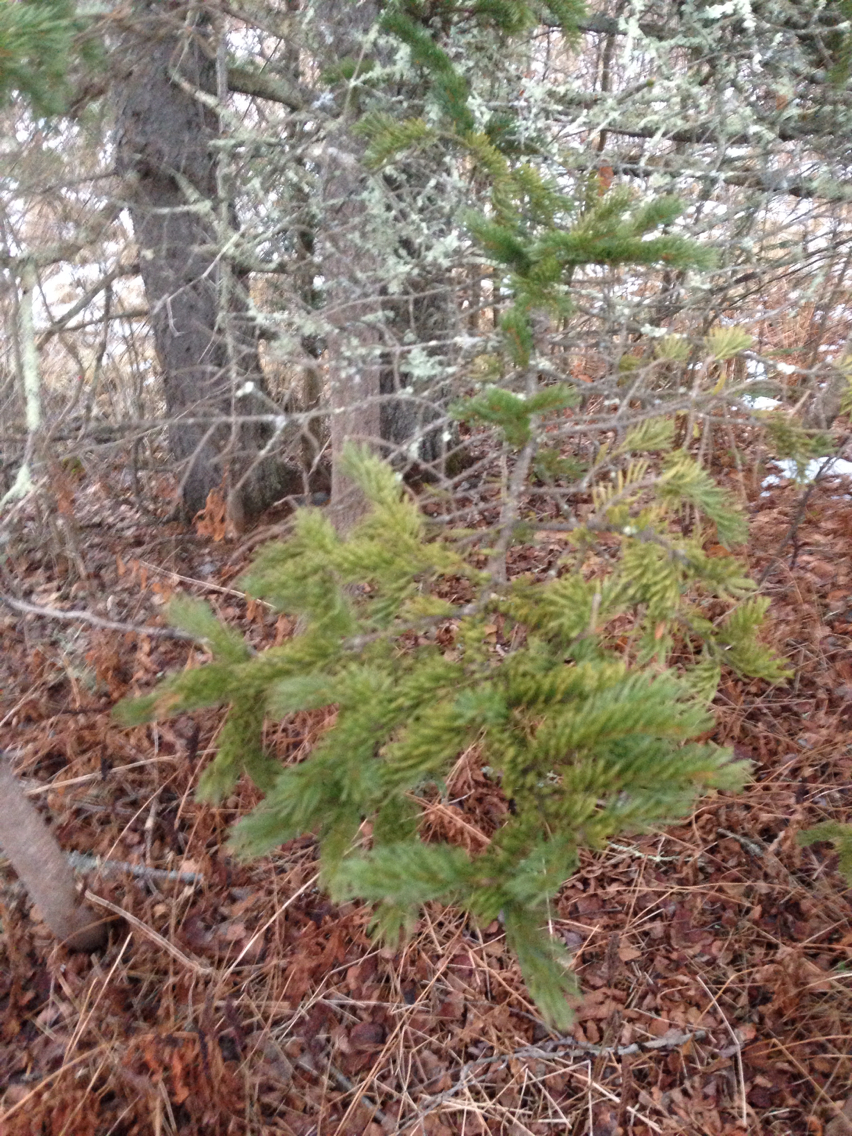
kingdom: Plantae
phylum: Tracheophyta
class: Pinopsida
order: Pinales
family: Pinaceae
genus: Picea
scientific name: Picea rubens
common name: Red spruce
